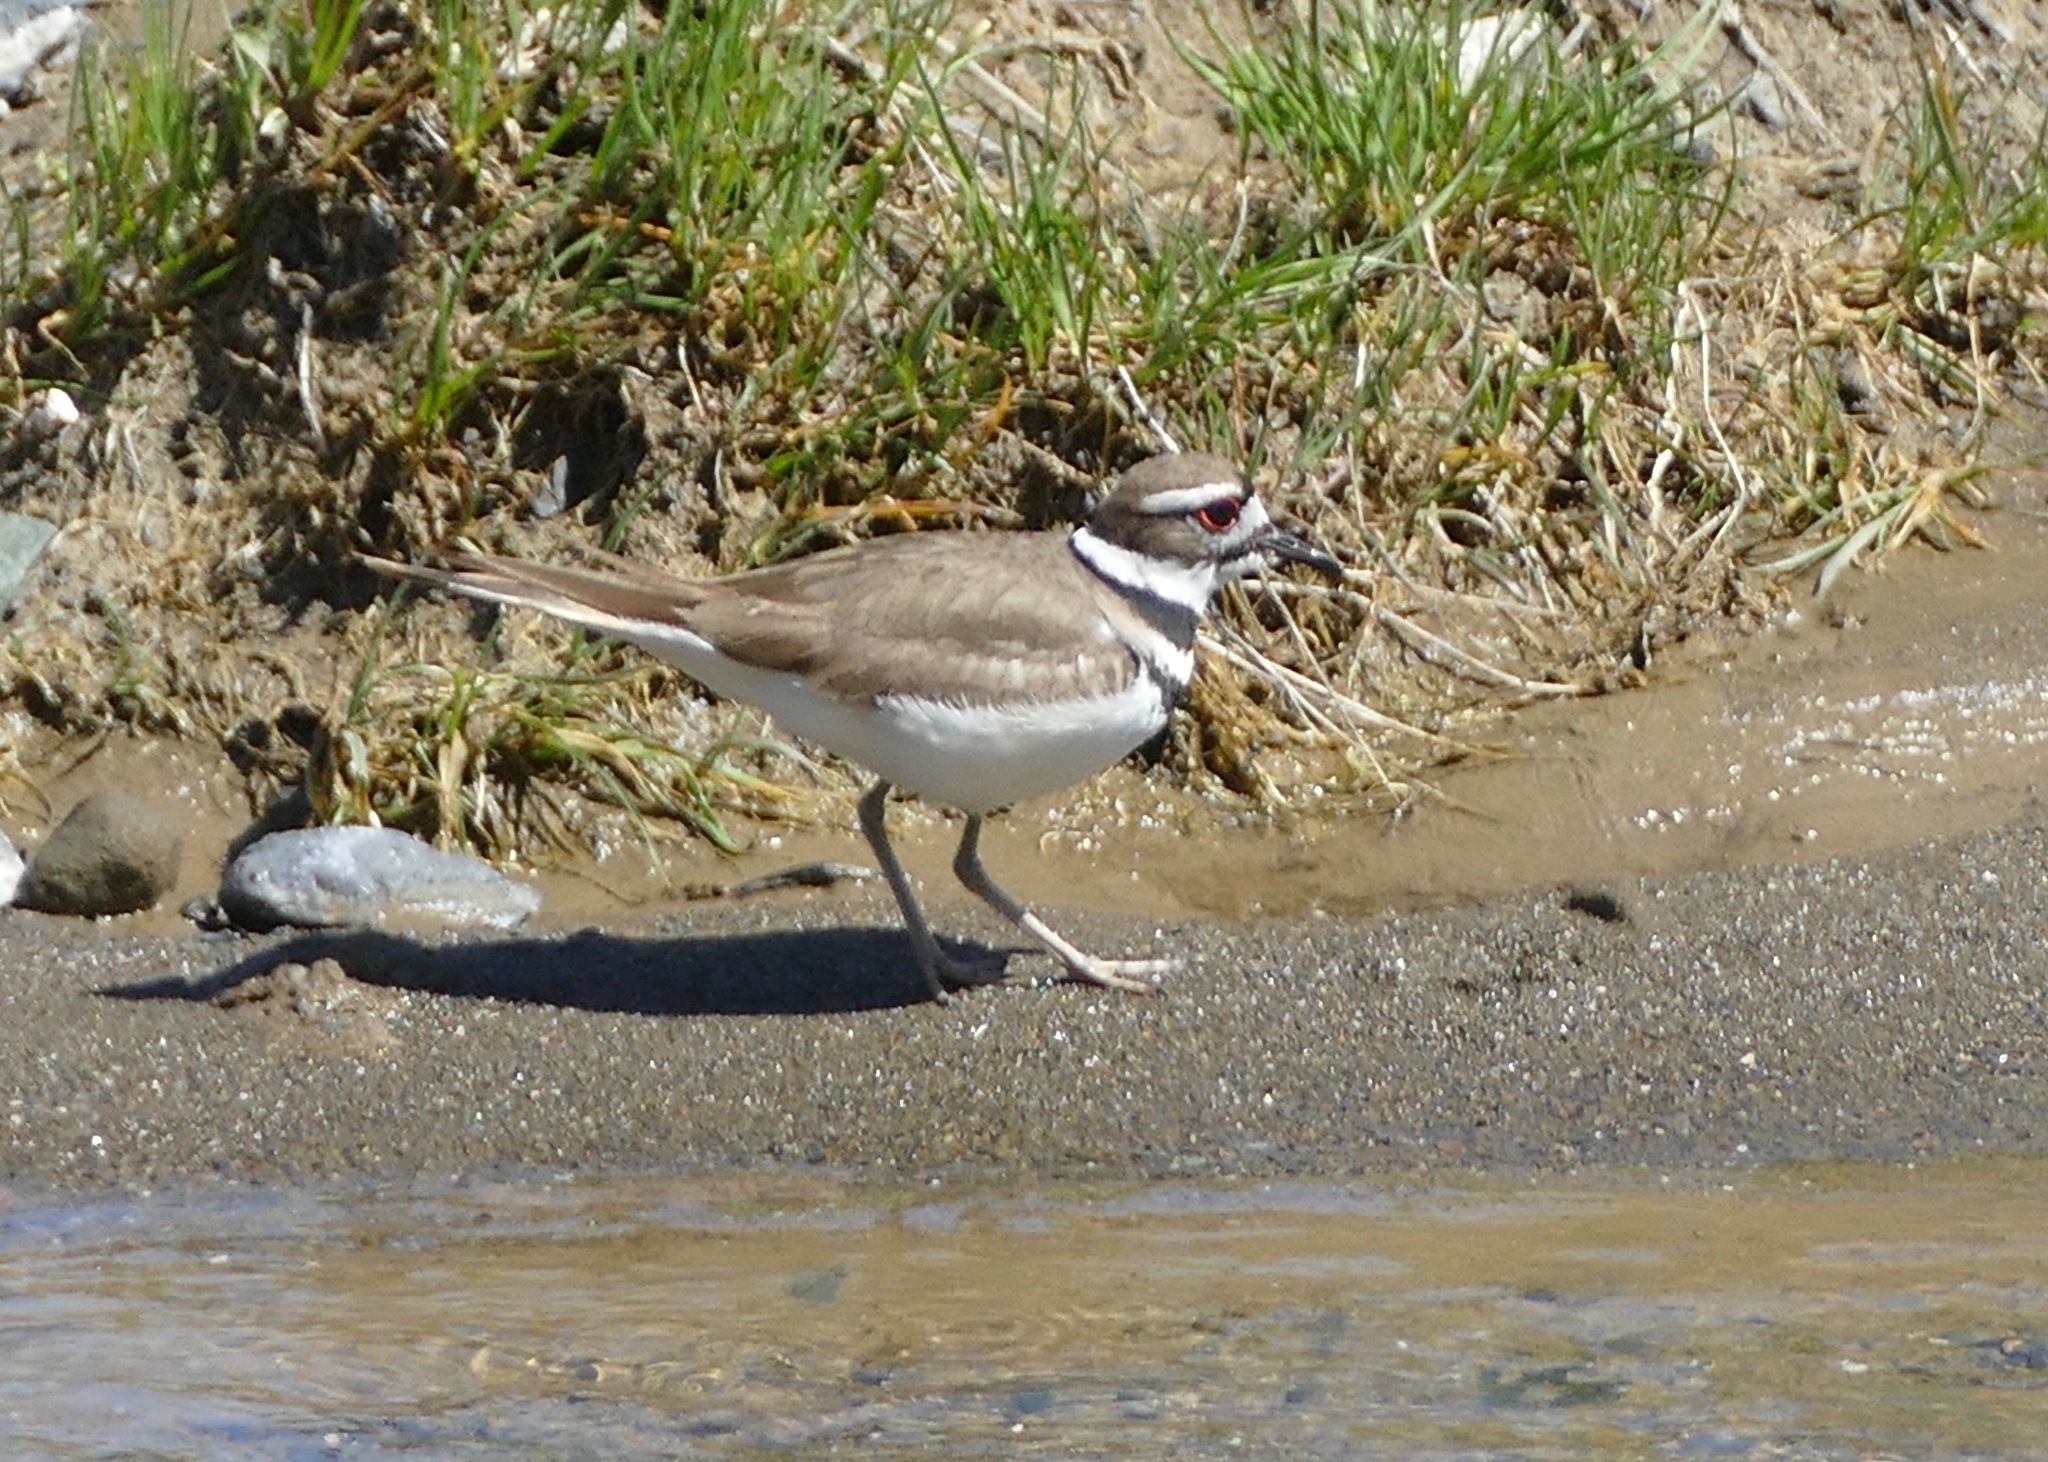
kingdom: Animalia
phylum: Chordata
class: Aves
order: Charadriiformes
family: Charadriidae
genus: Charadrius
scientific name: Charadrius vociferus
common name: Killdeer
